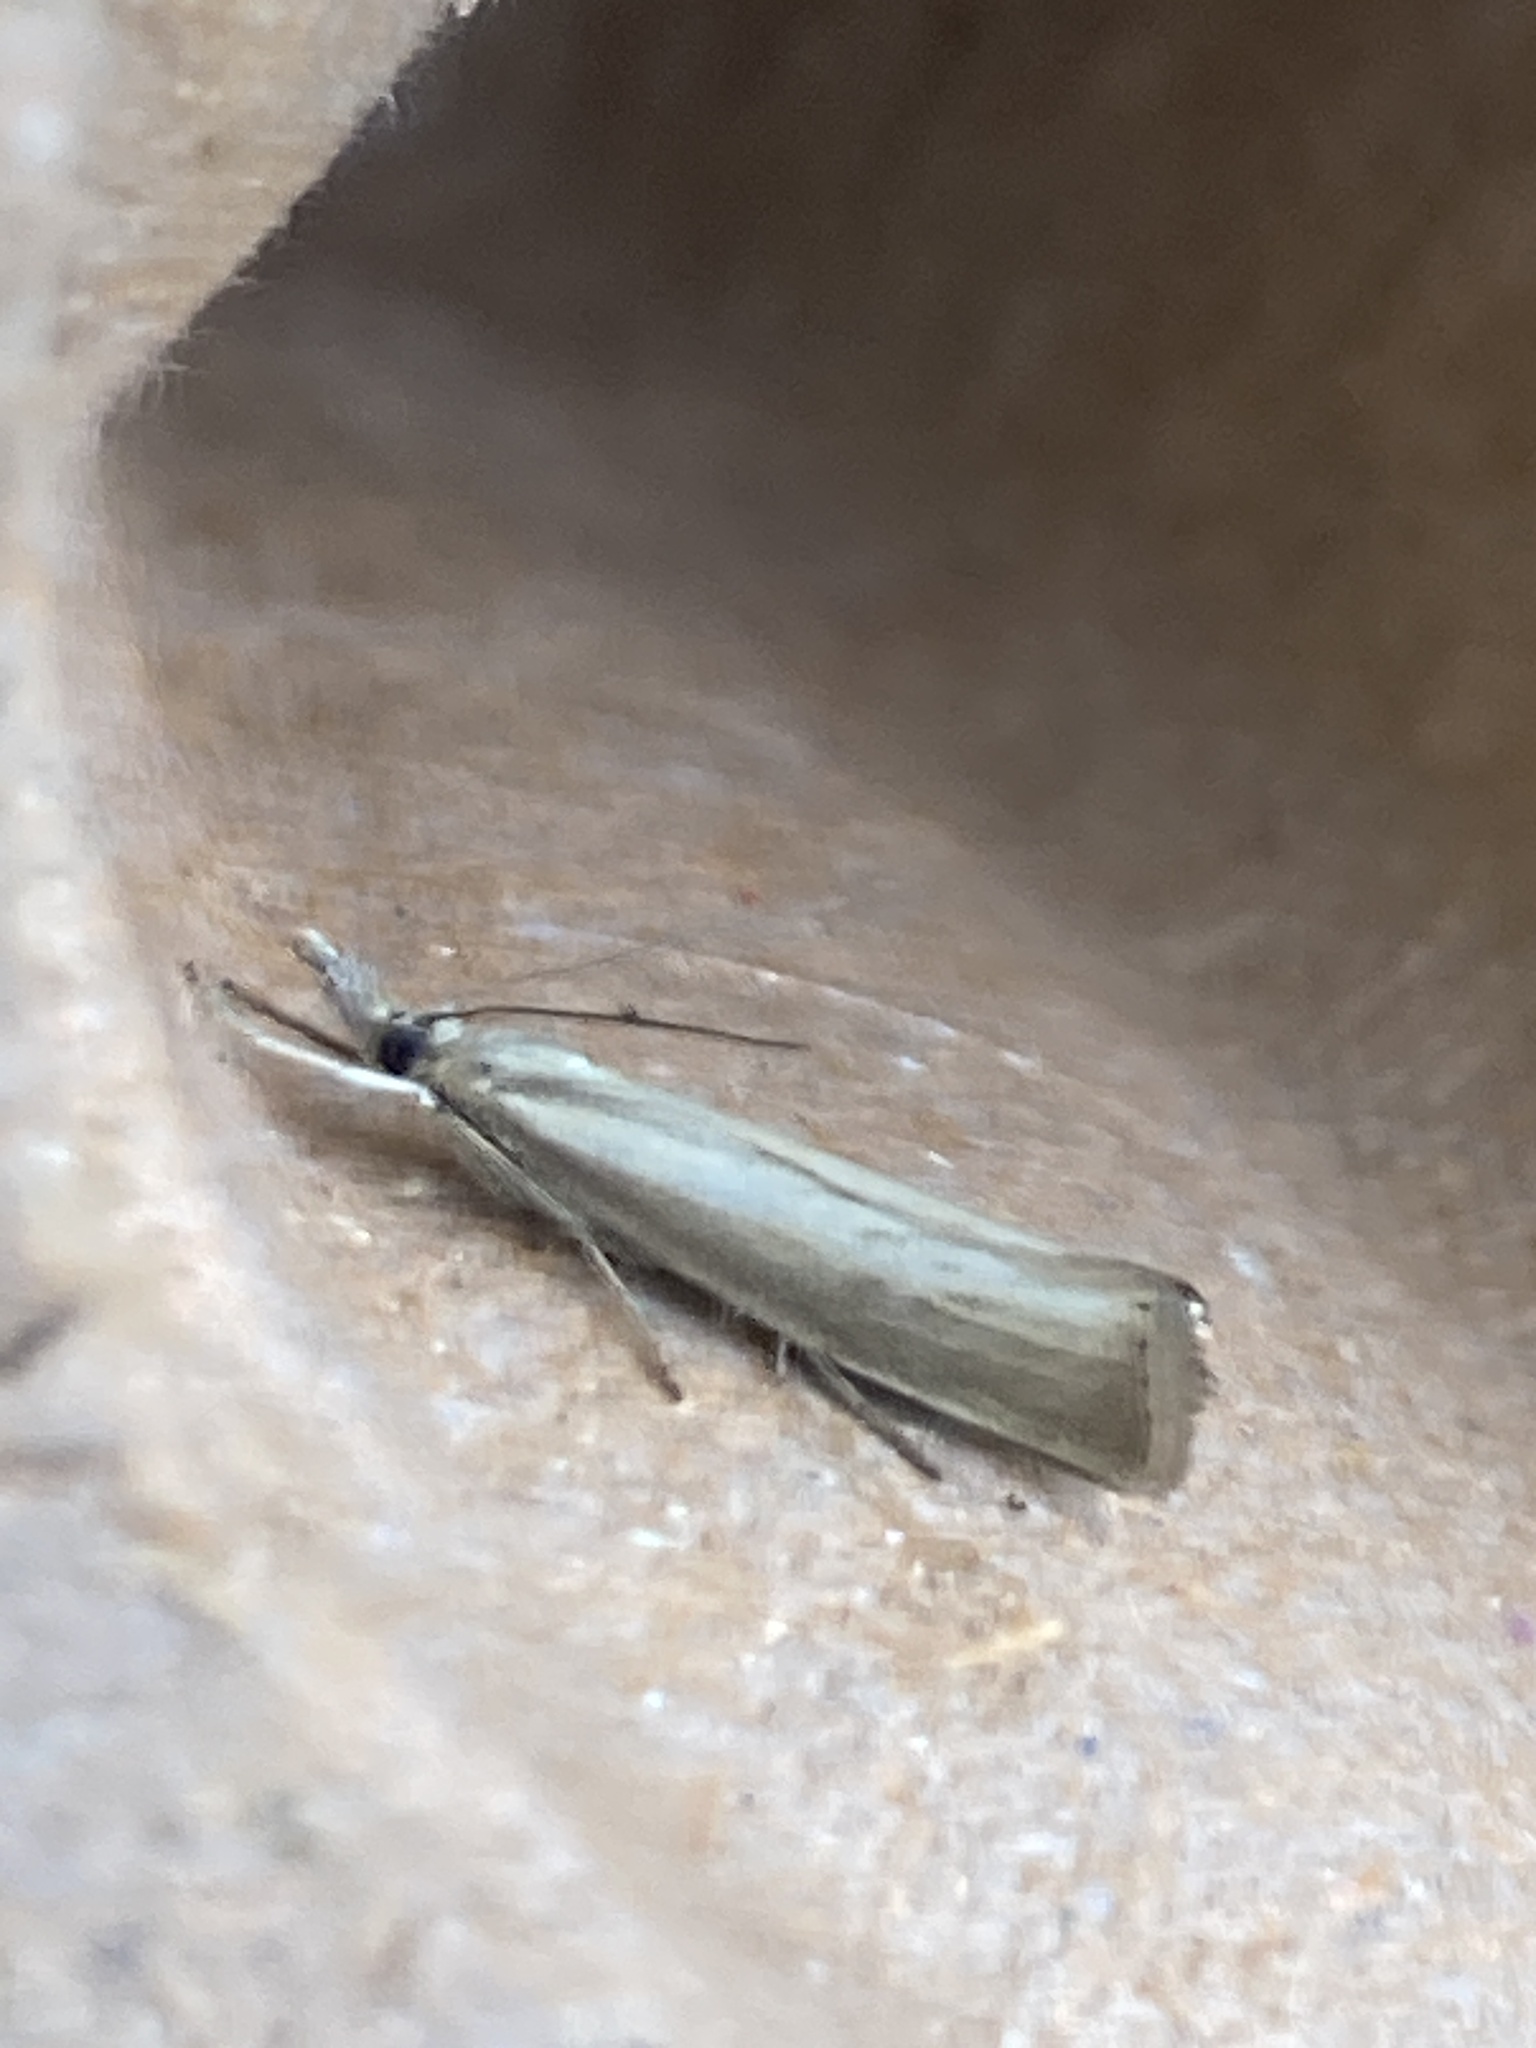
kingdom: Animalia
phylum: Arthropoda
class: Insecta
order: Lepidoptera
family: Crambidae
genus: Agriphila
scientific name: Agriphila straminella
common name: Straw grass-veneer
